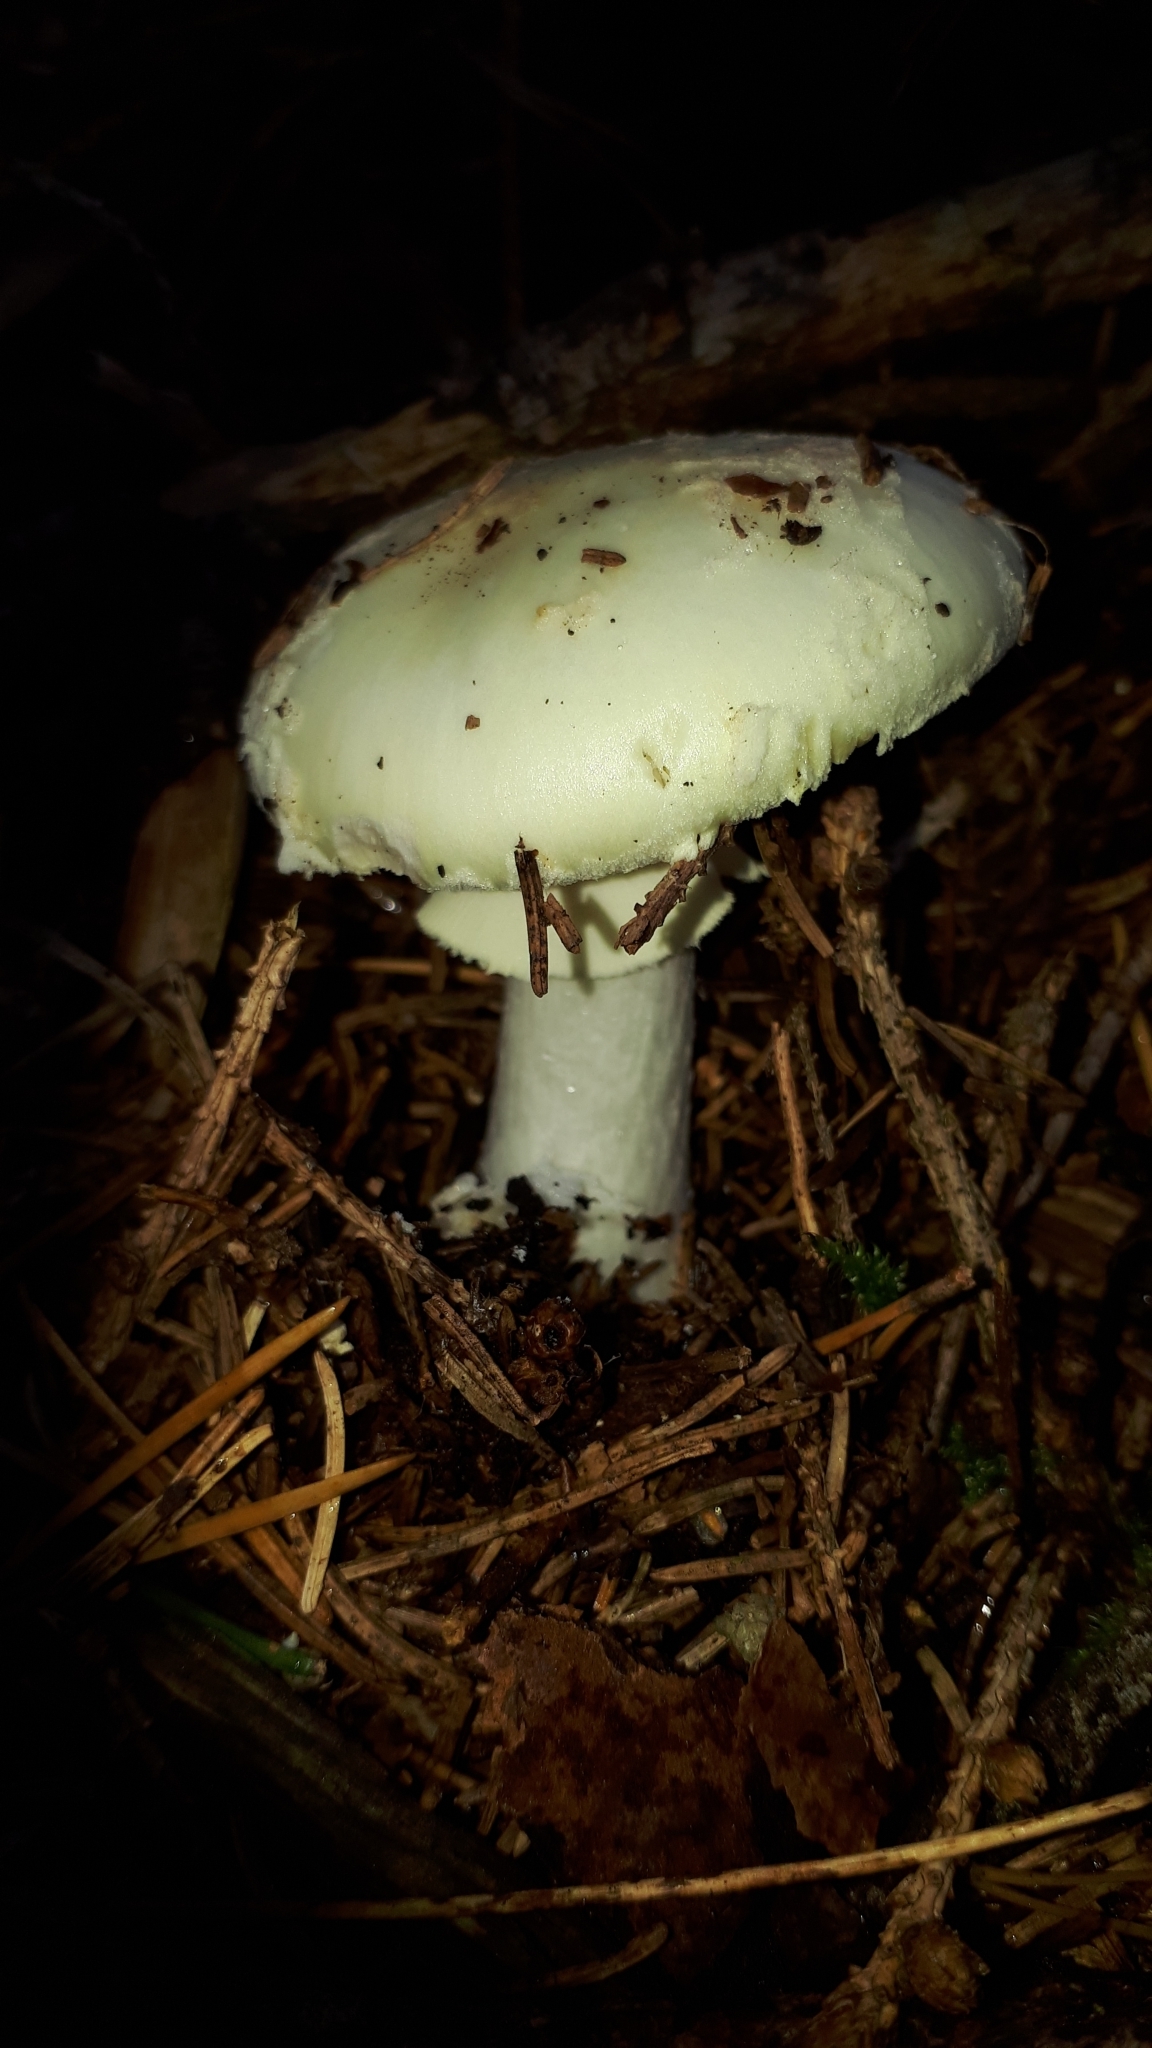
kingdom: Fungi
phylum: Basidiomycota
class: Agaricomycetes
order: Agaricales
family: Amanitaceae
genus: Amanita
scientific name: Amanita citrina
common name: False death-cap
